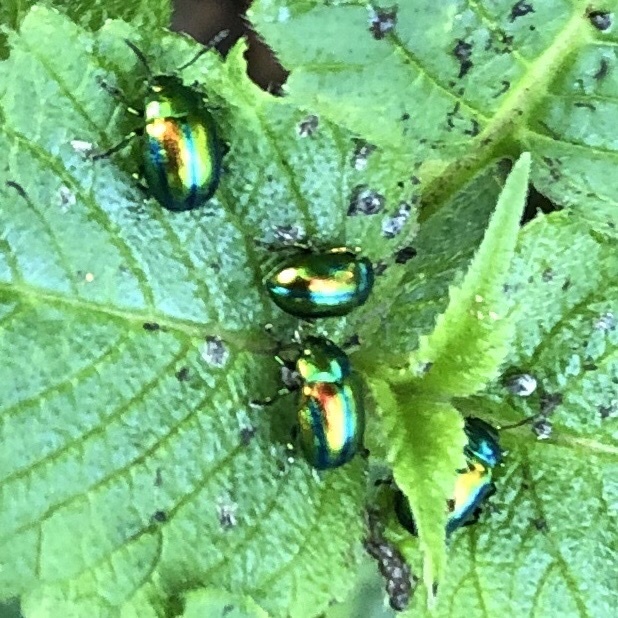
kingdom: Animalia
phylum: Arthropoda
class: Insecta
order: Coleoptera
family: Chrysomelidae
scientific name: Chrysomelidae
